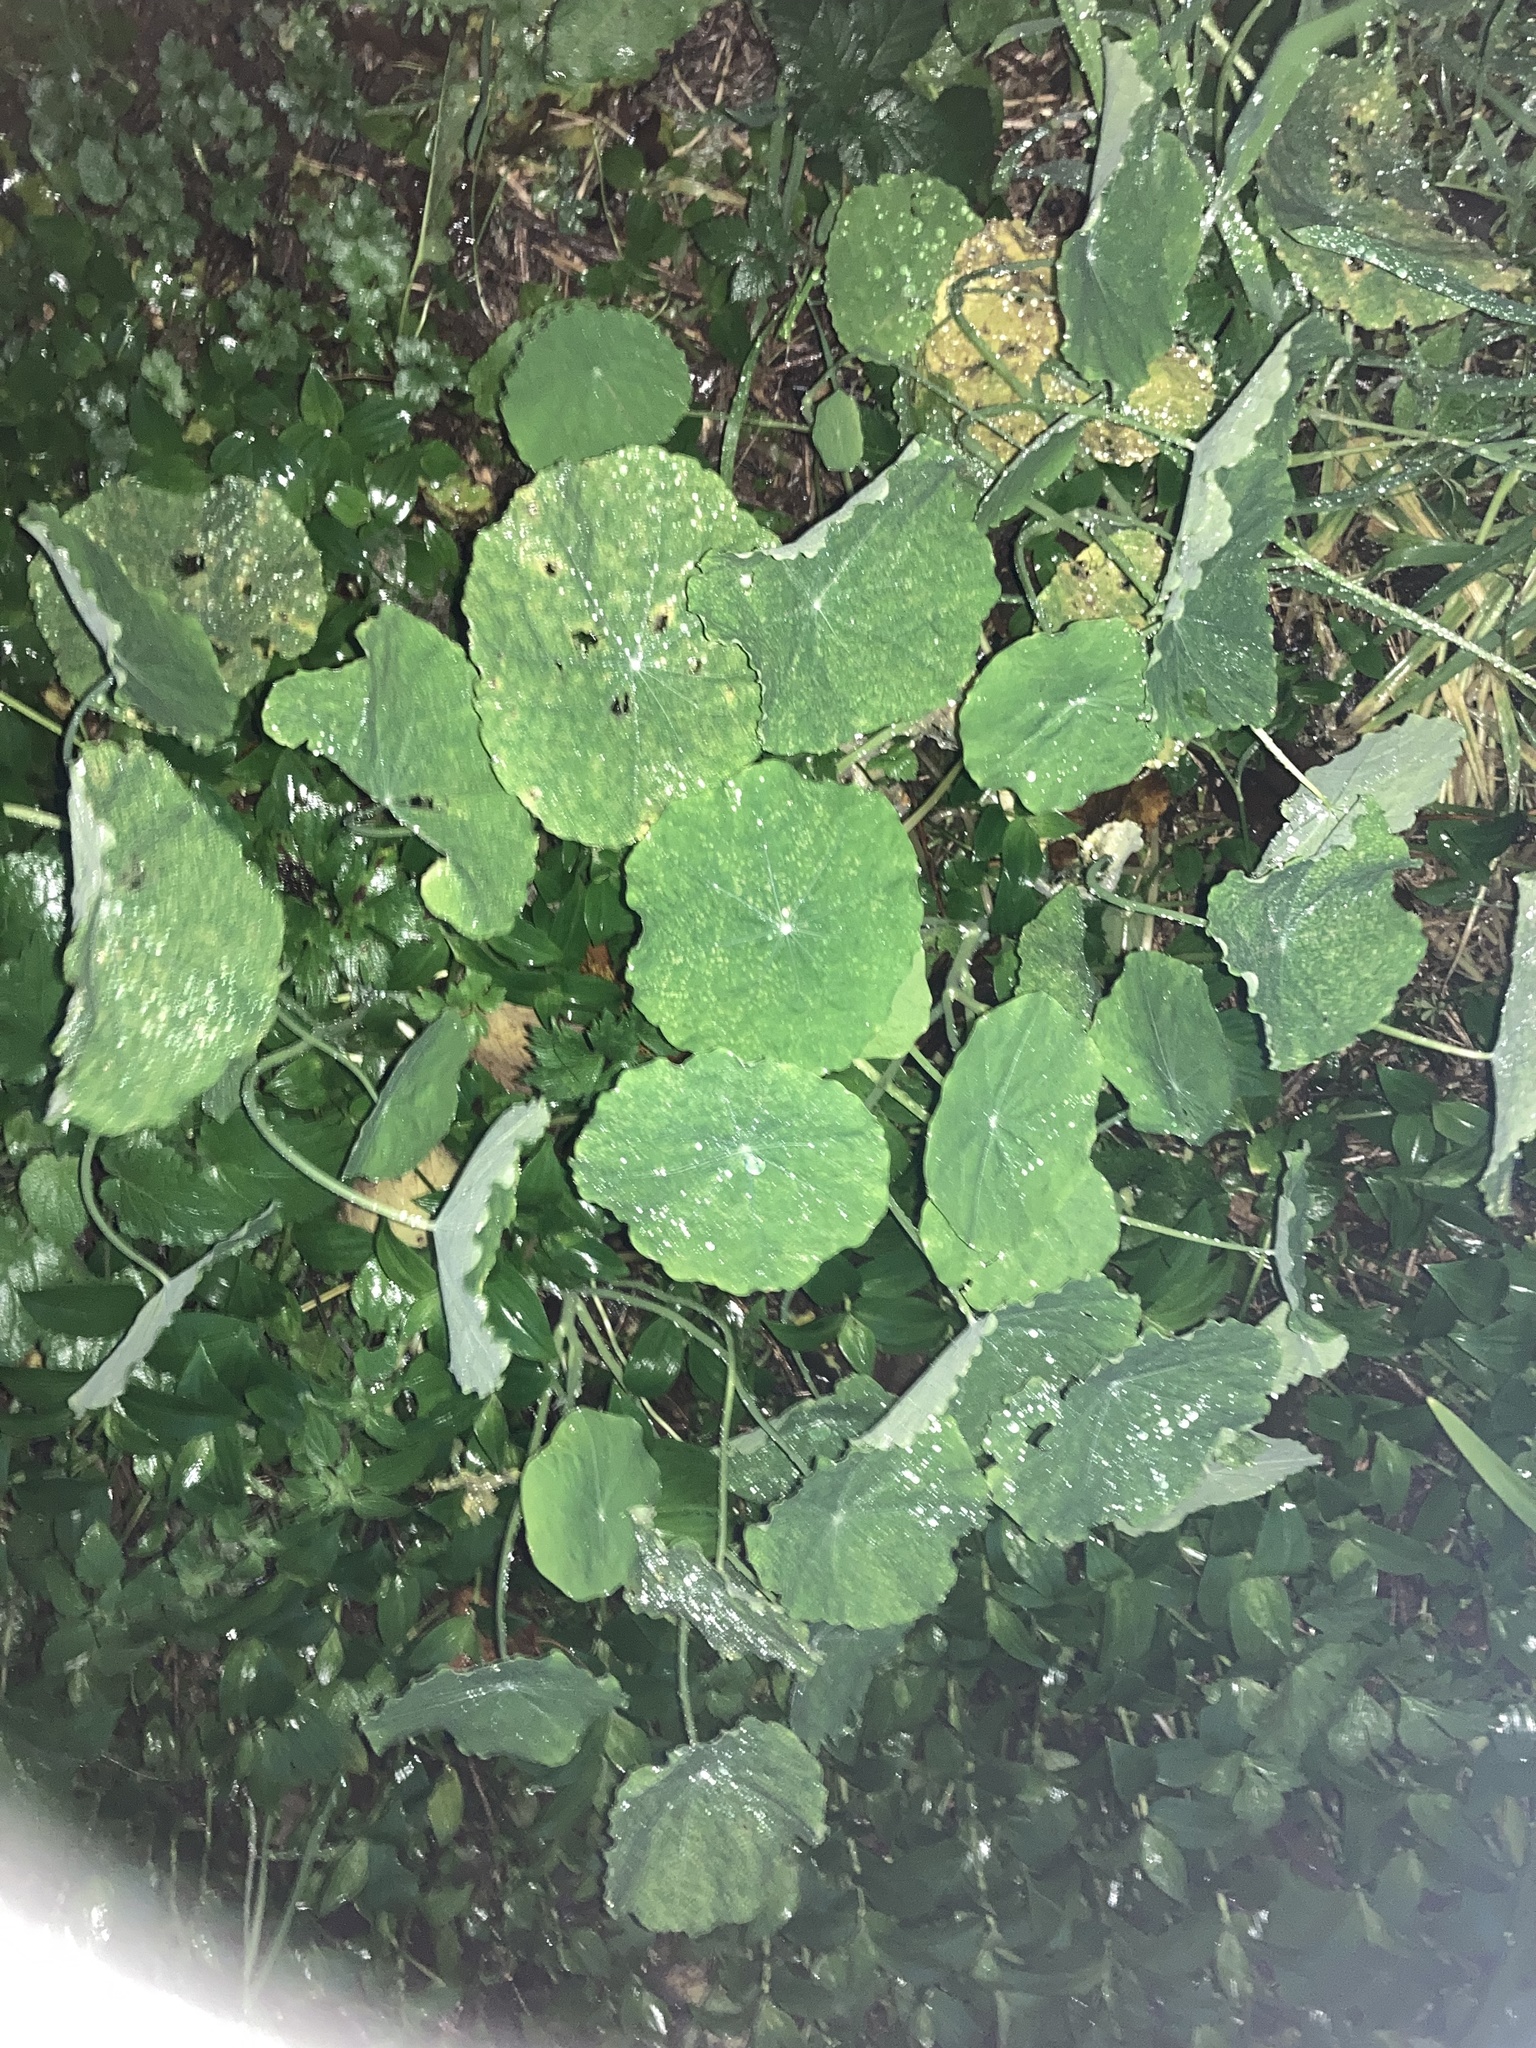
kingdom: Plantae
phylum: Tracheophyta
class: Magnoliopsida
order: Brassicales
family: Tropaeolaceae
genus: Tropaeolum
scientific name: Tropaeolum majus
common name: Nasturtium
